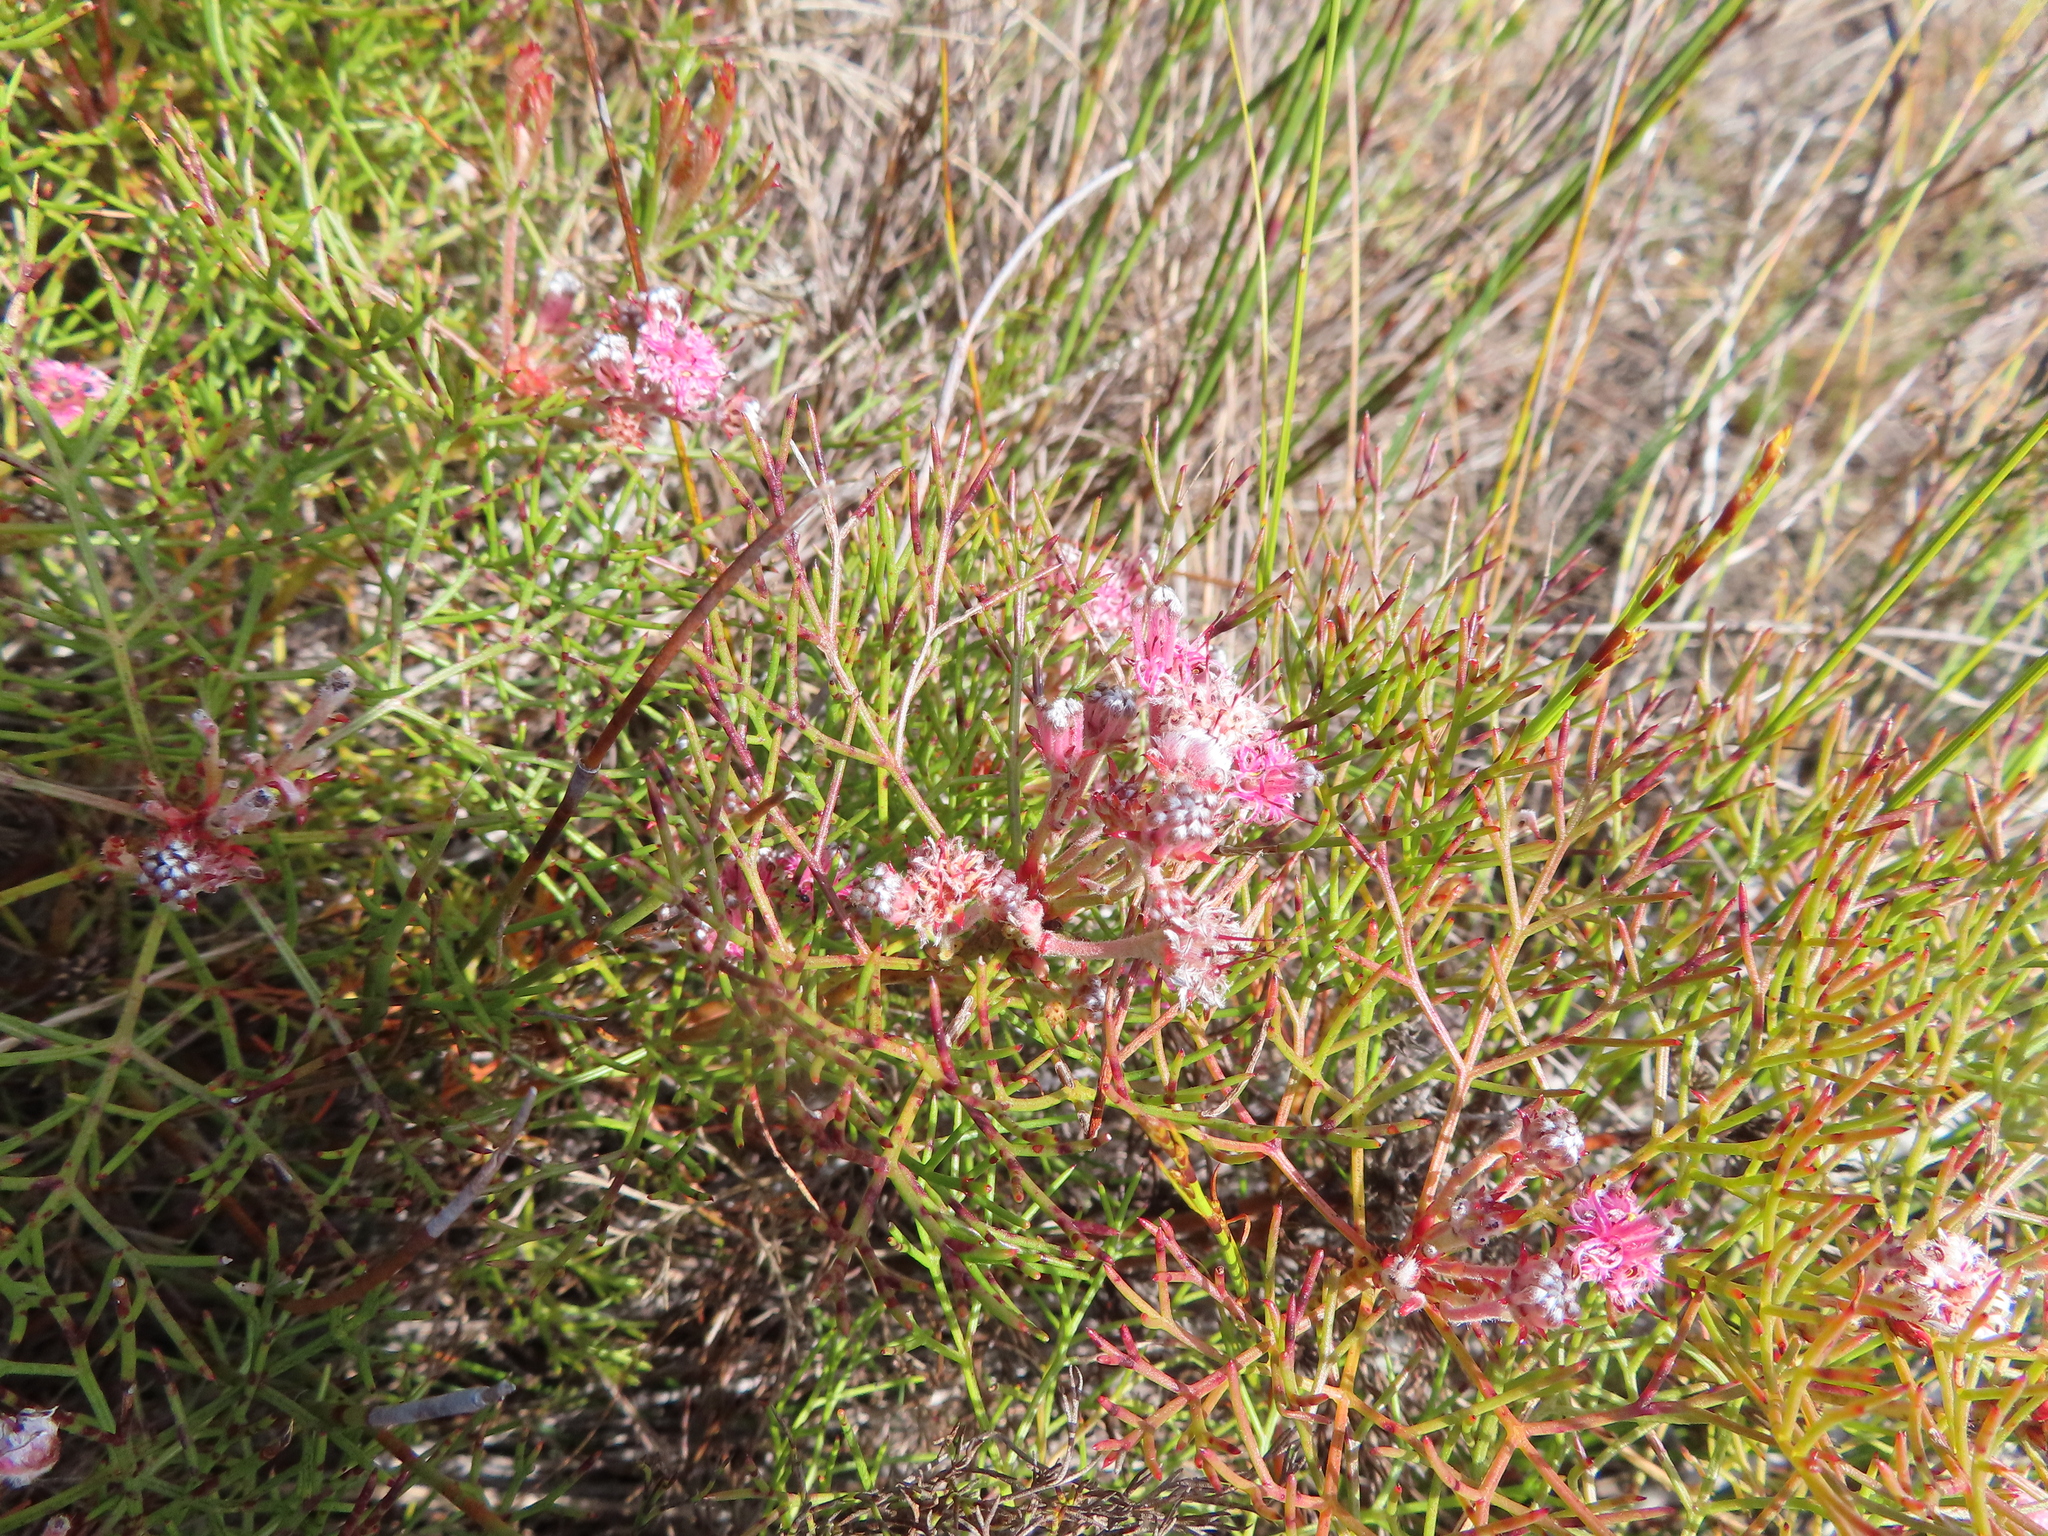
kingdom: Plantae
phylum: Tracheophyta
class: Magnoliopsida
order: Proteales
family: Proteaceae
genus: Serruria
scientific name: Serruria fasciflora
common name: Common pin spiderhead
